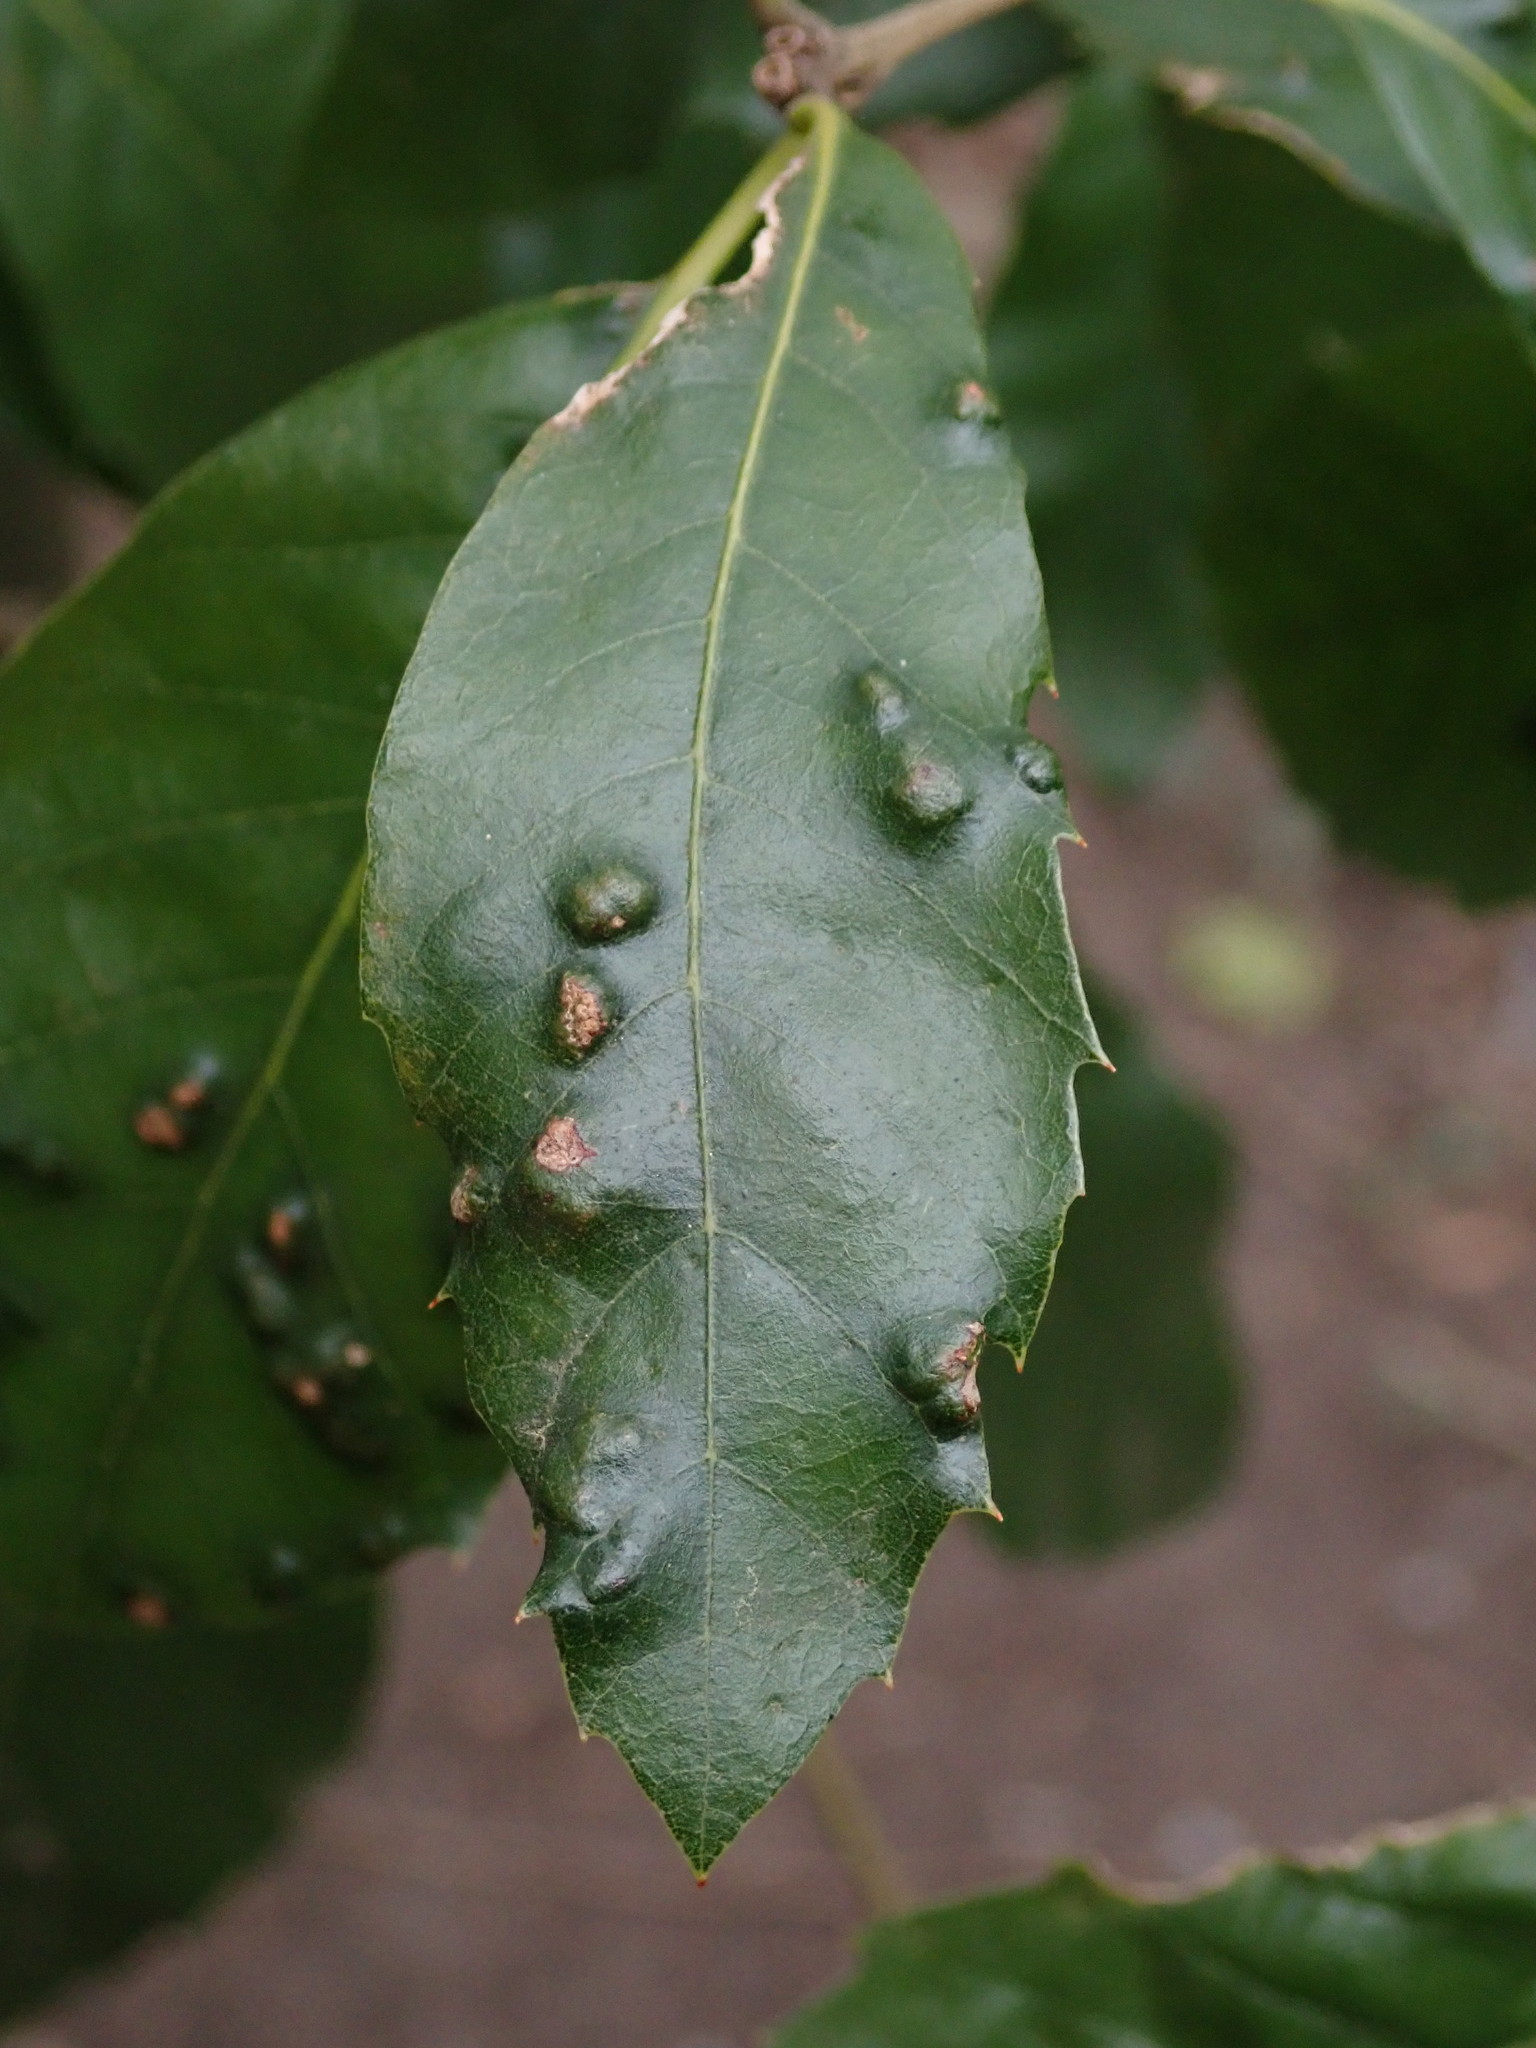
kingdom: Animalia
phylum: Arthropoda
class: Arachnida
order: Trombidiformes
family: Eriophyidae
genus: Aceria
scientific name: Aceria ilicis
